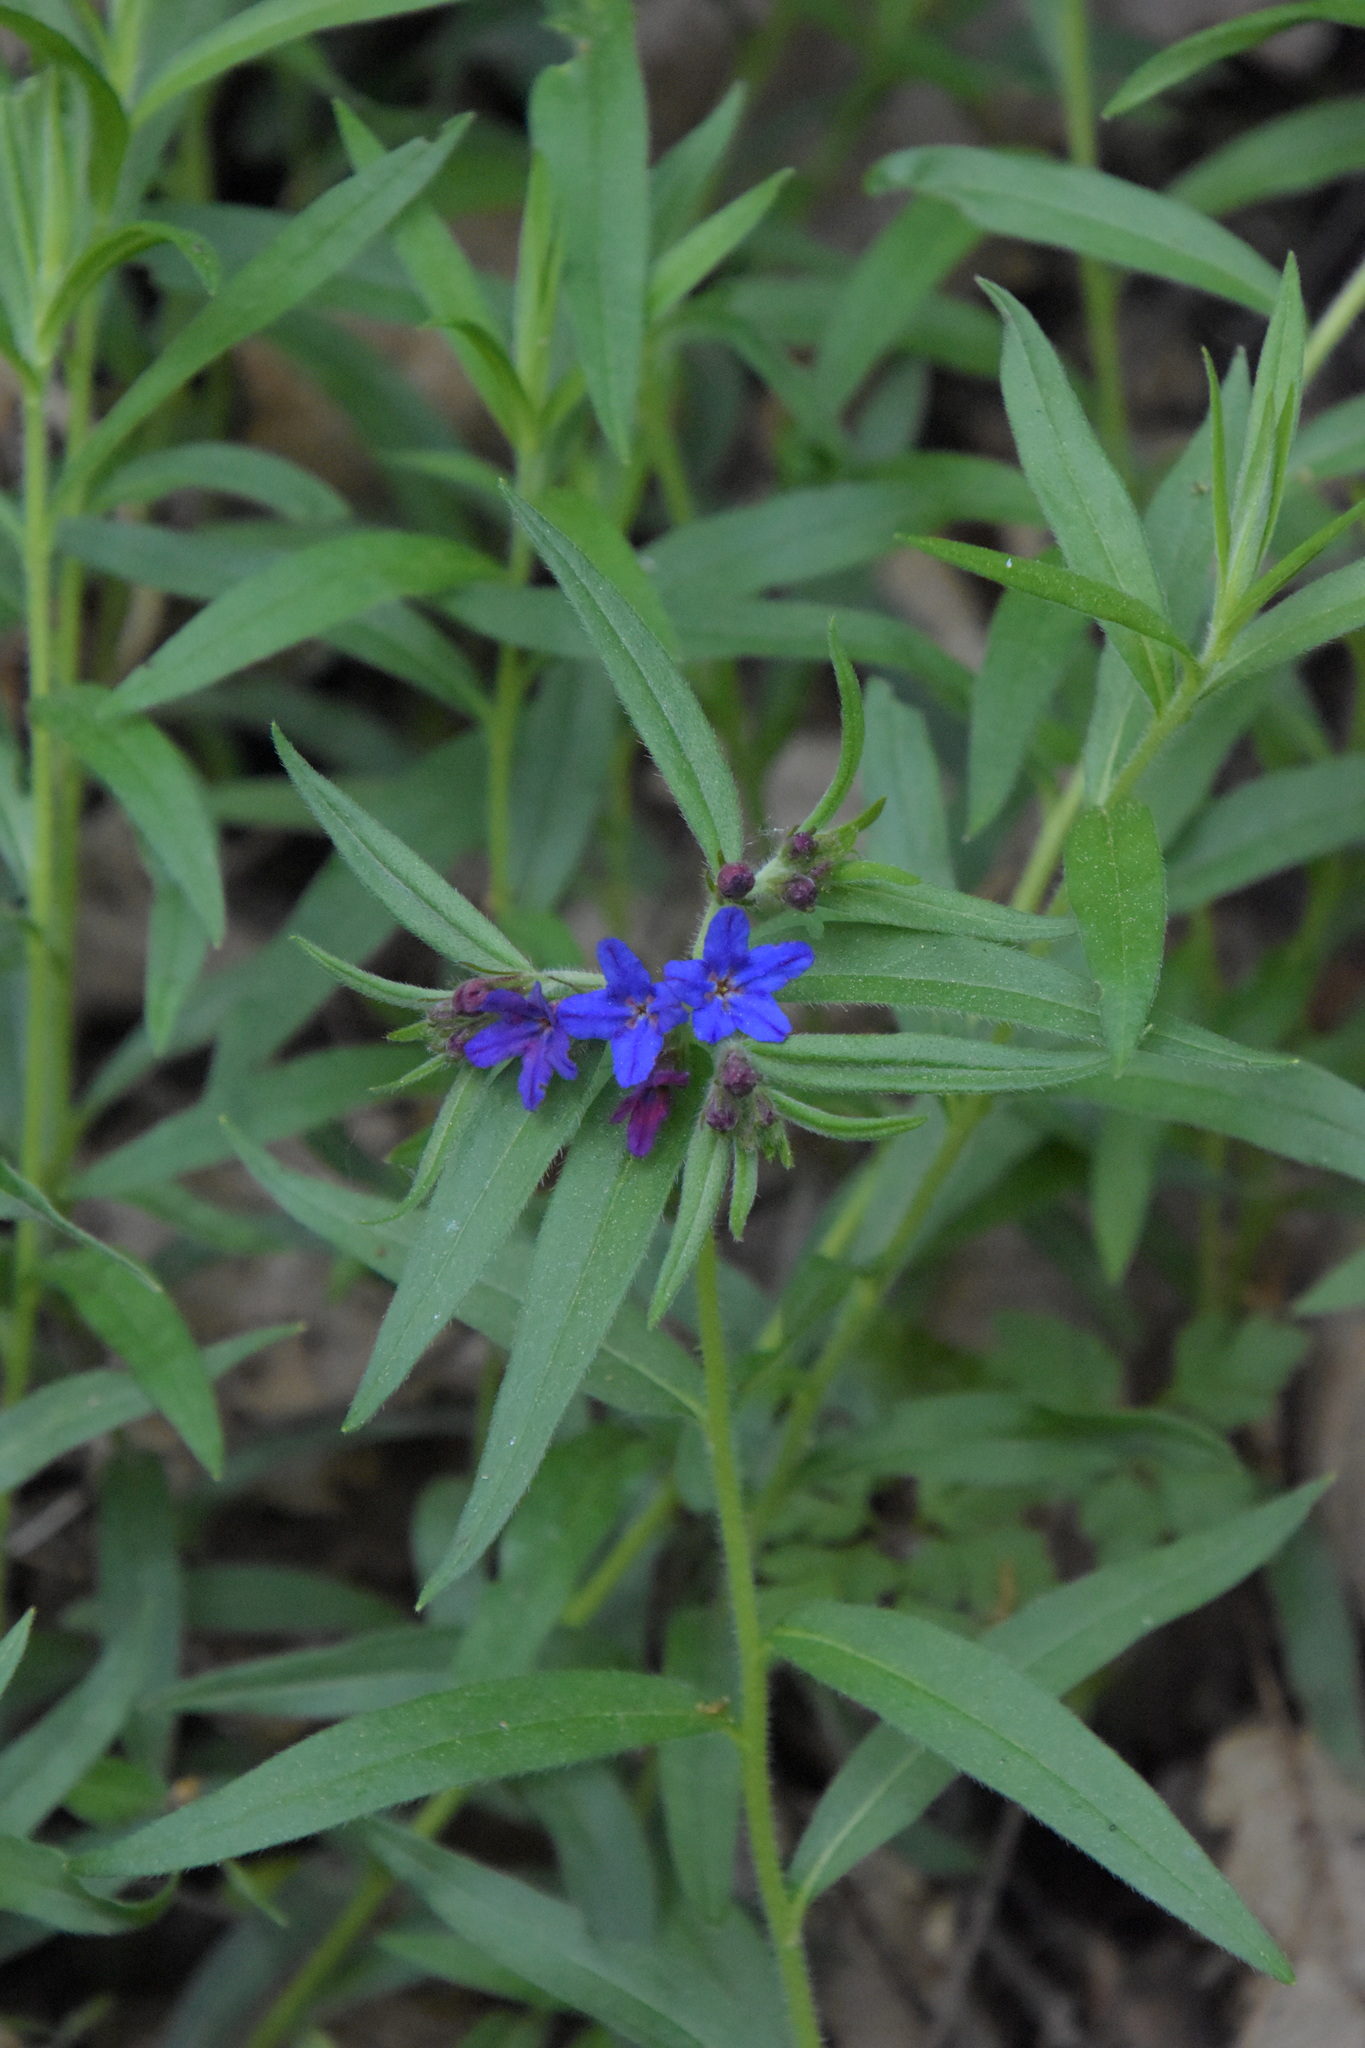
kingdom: Plantae
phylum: Tracheophyta
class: Magnoliopsida
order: Boraginales
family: Boraginaceae
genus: Aegonychon
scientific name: Aegonychon purpurocaeruleum
